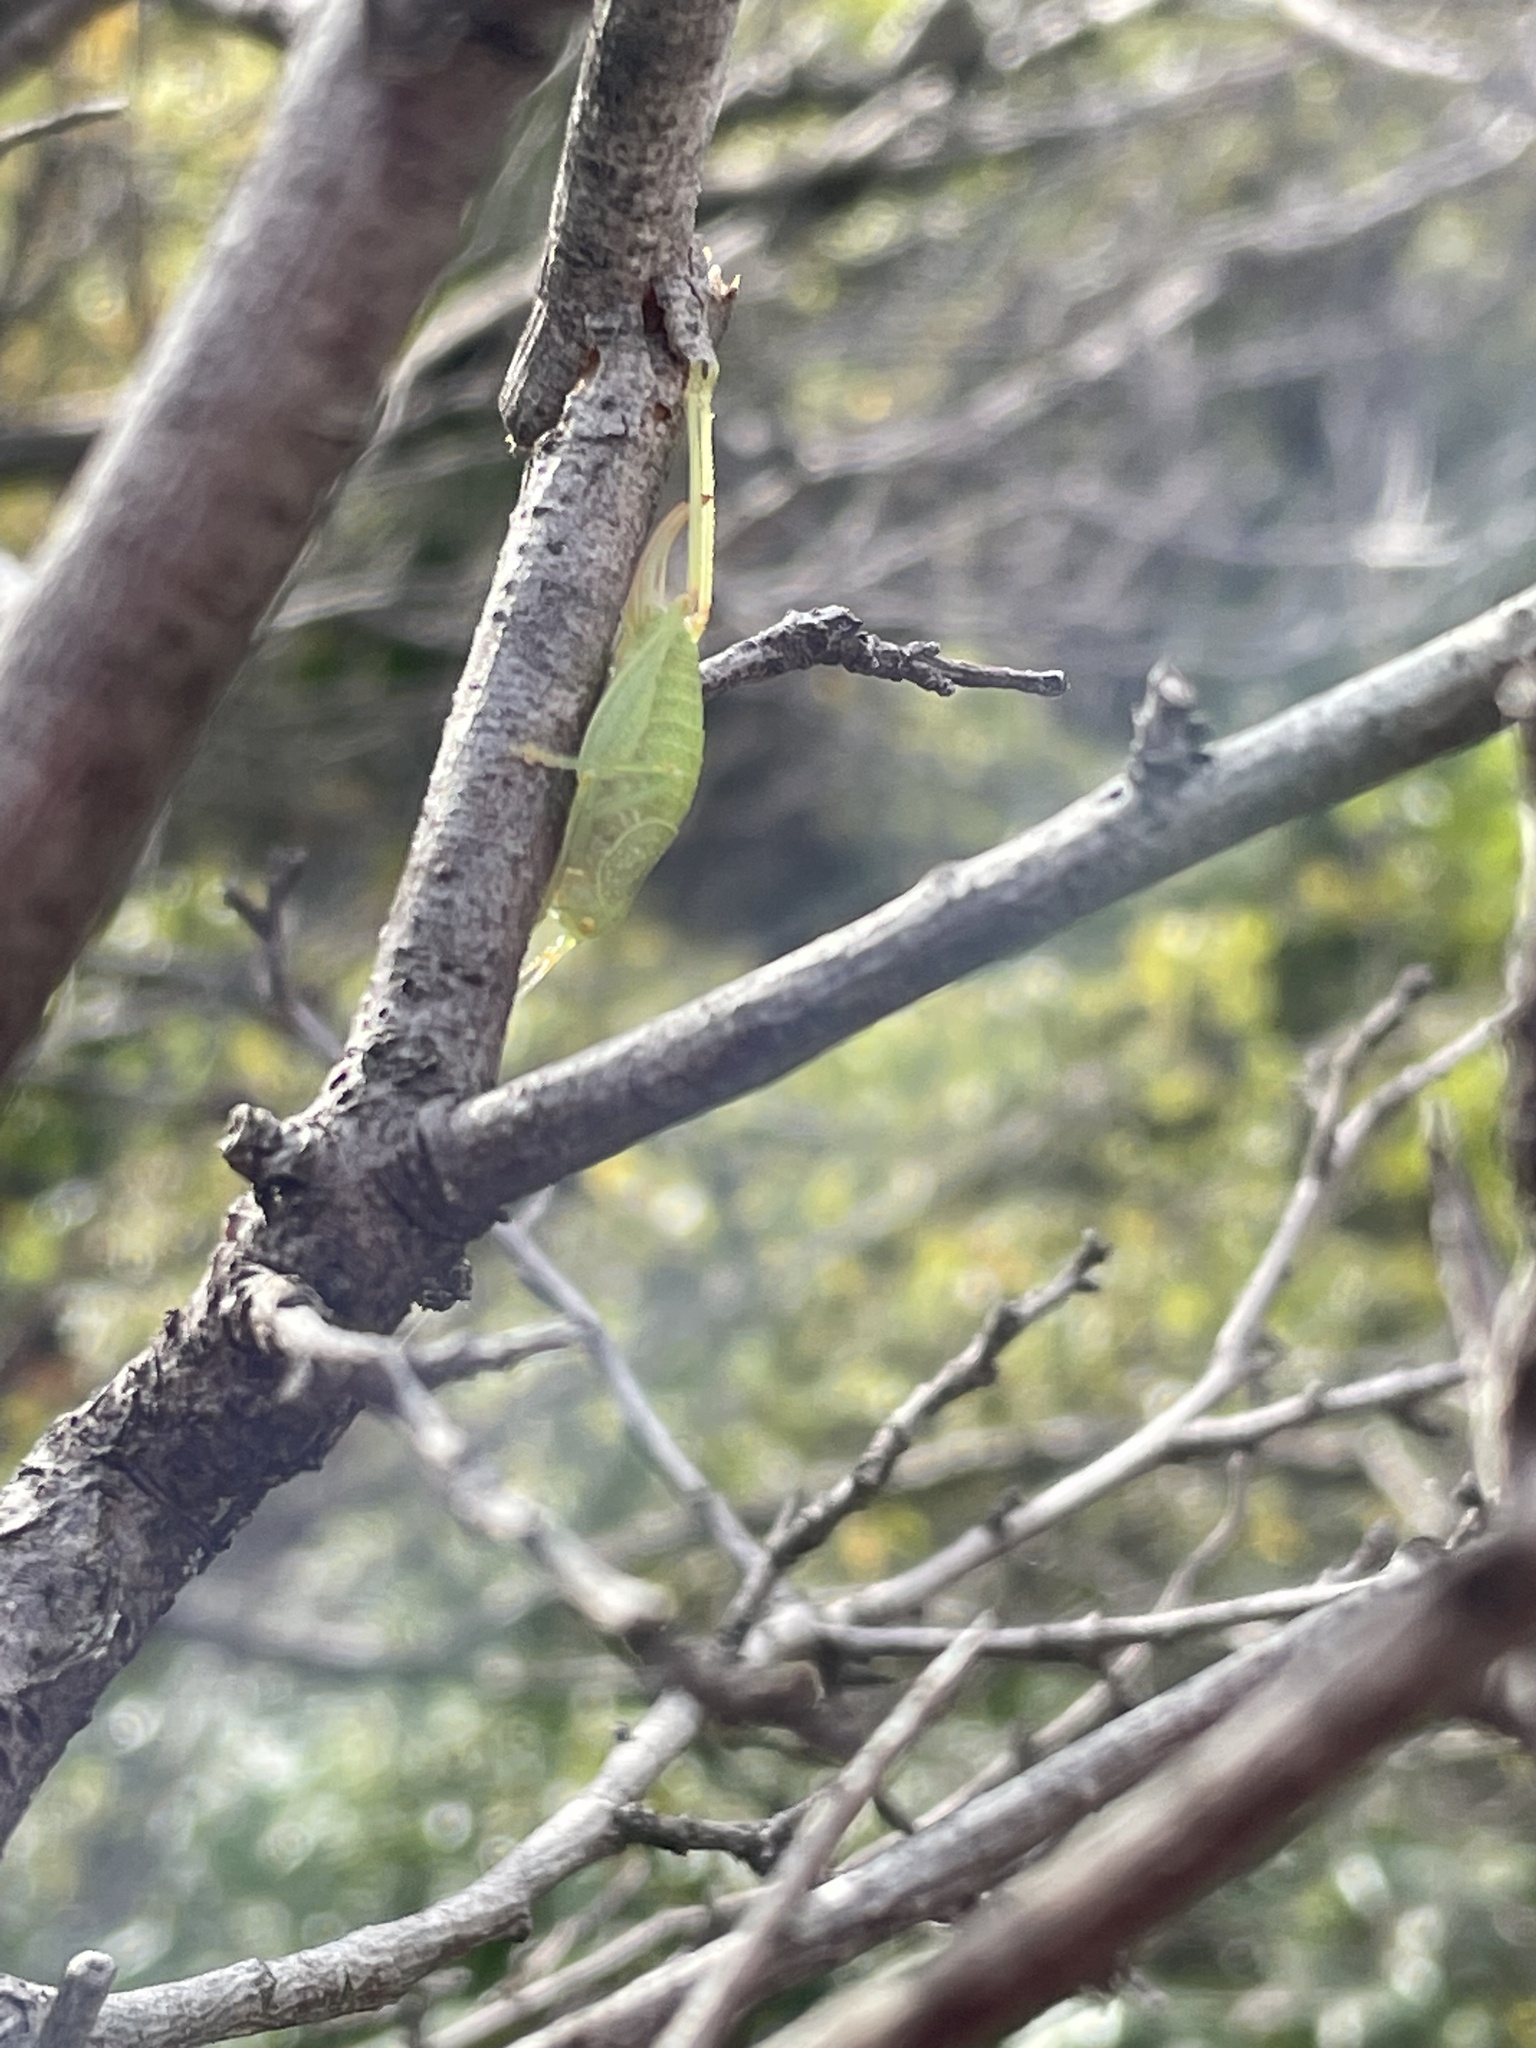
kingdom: Animalia
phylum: Arthropoda
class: Insecta
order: Orthoptera
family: Tettigoniidae
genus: Cyrtaspis
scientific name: Cyrtaspis scutata
